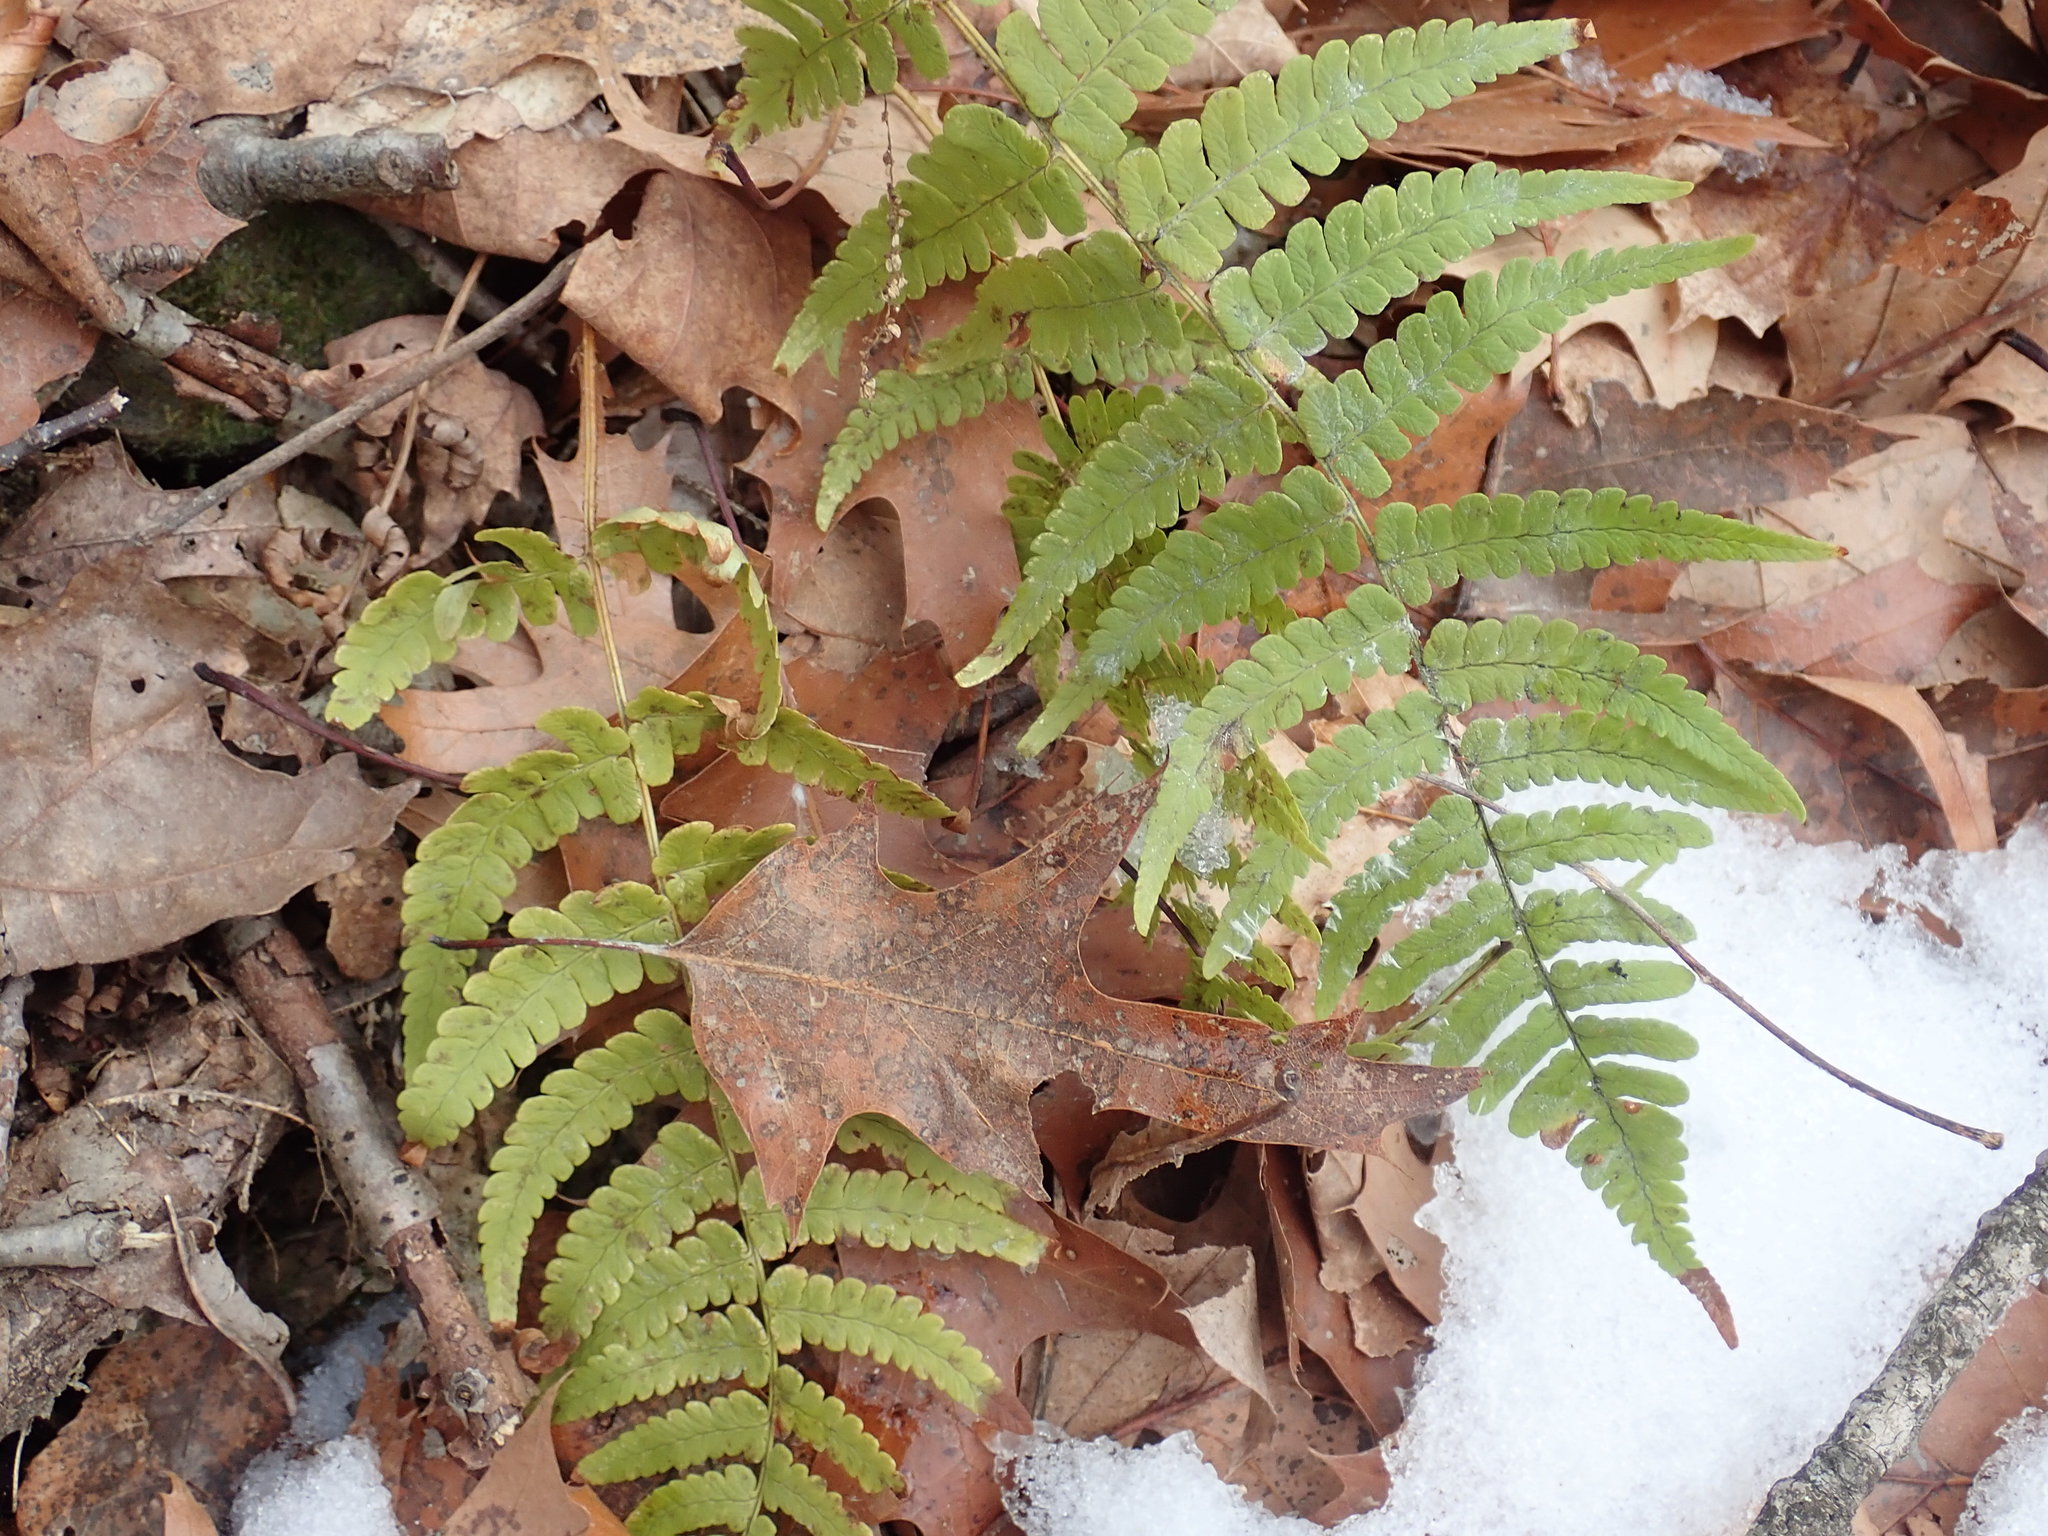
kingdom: Plantae
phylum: Tracheophyta
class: Polypodiopsida
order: Polypodiales
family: Dryopteridaceae
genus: Dryopteris
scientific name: Dryopteris marginalis
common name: Marginal wood fern
